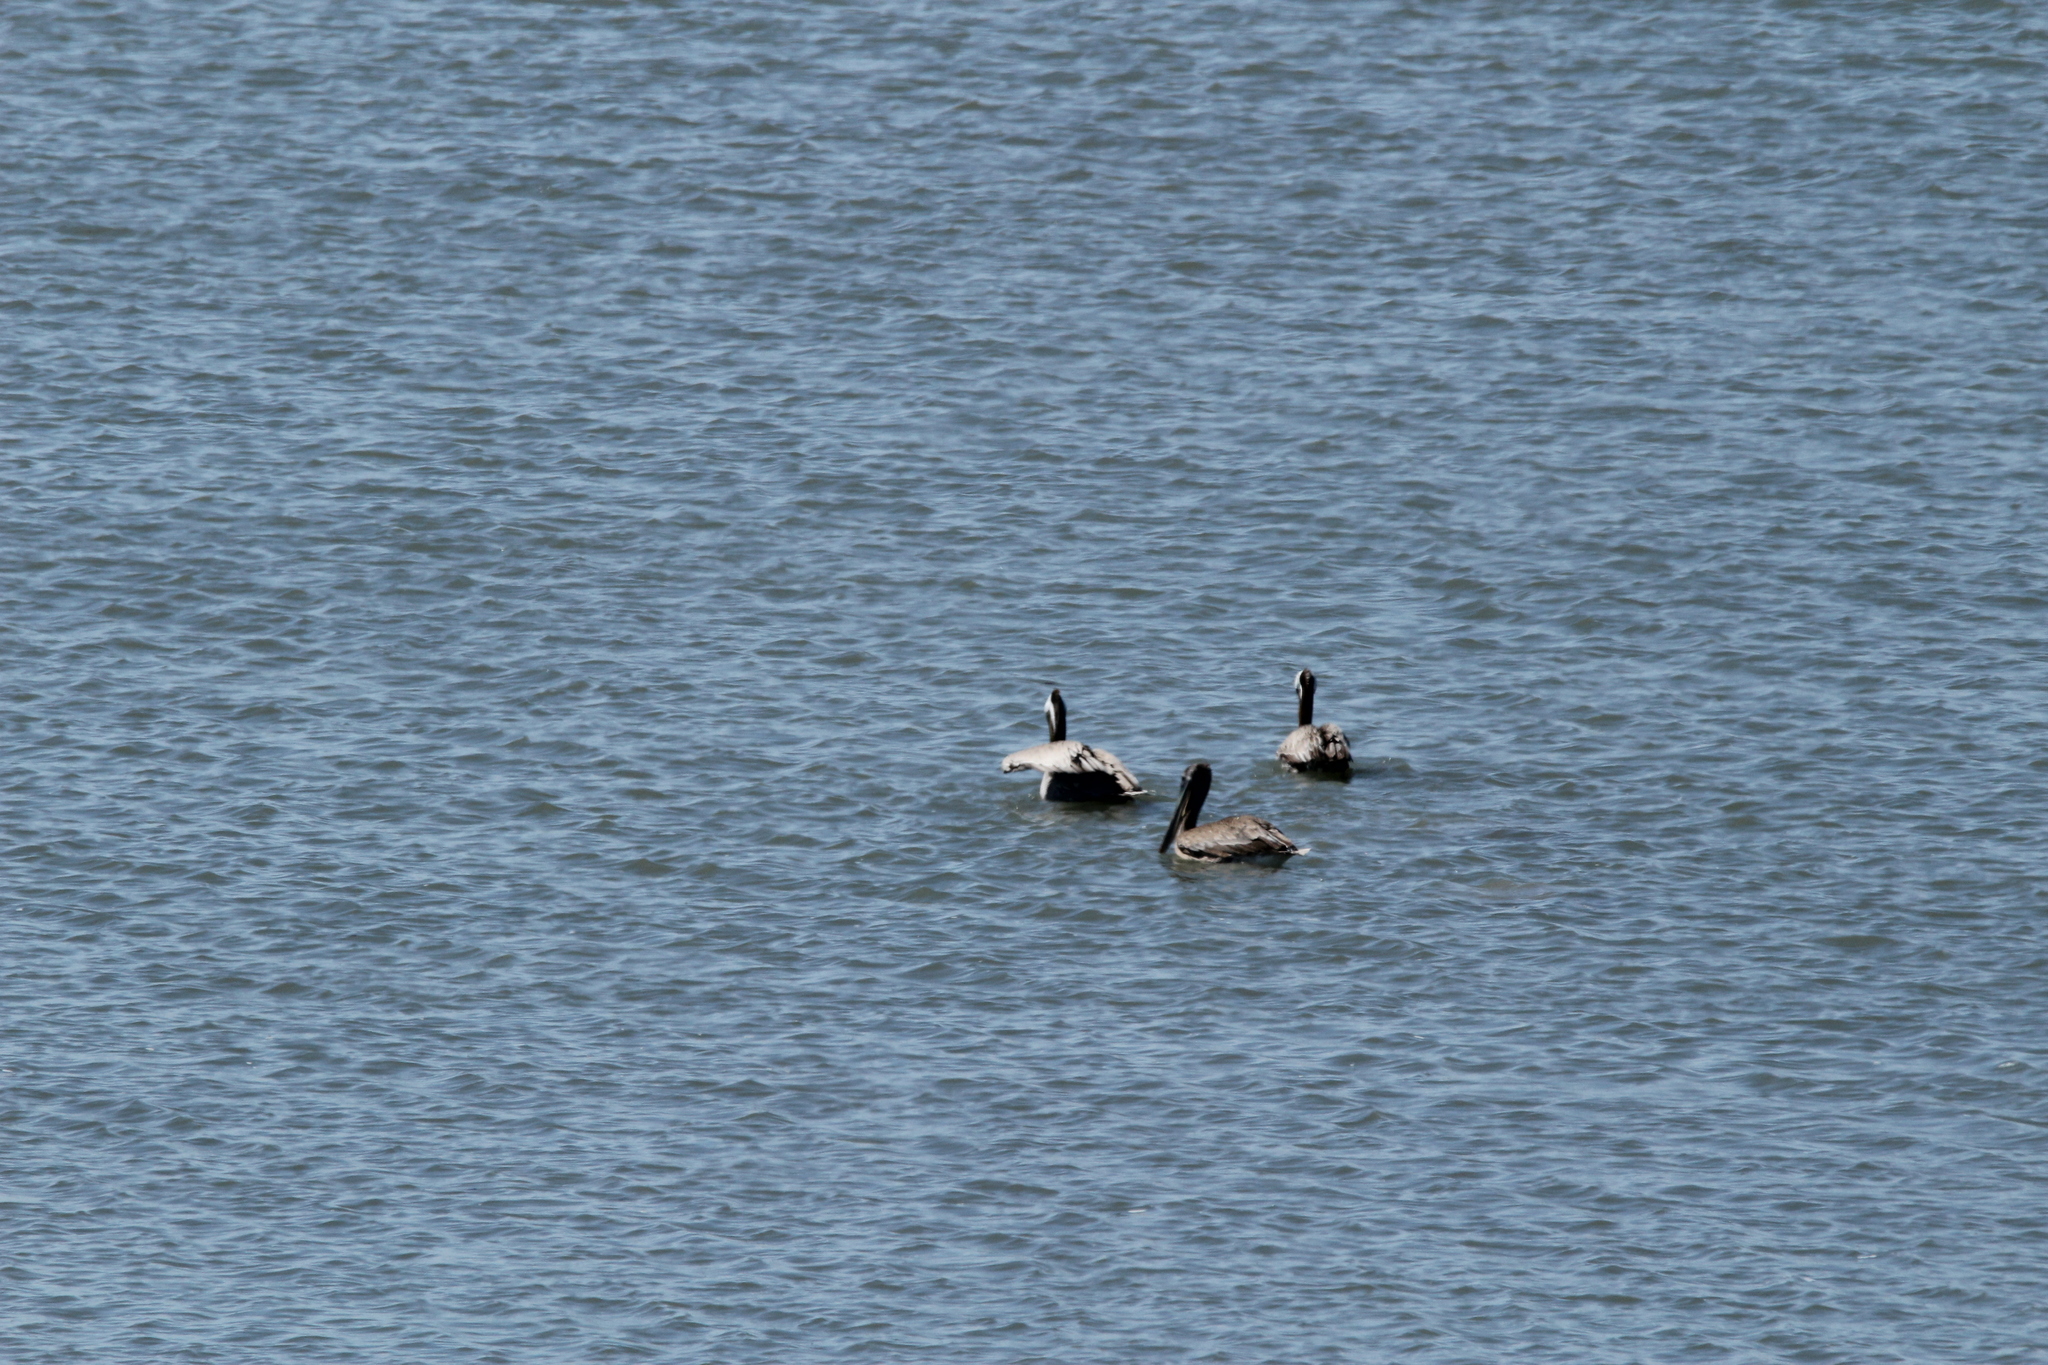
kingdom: Animalia
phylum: Chordata
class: Aves
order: Pelecaniformes
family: Pelecanidae
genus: Pelecanus
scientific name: Pelecanus occidentalis
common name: Brown pelican
